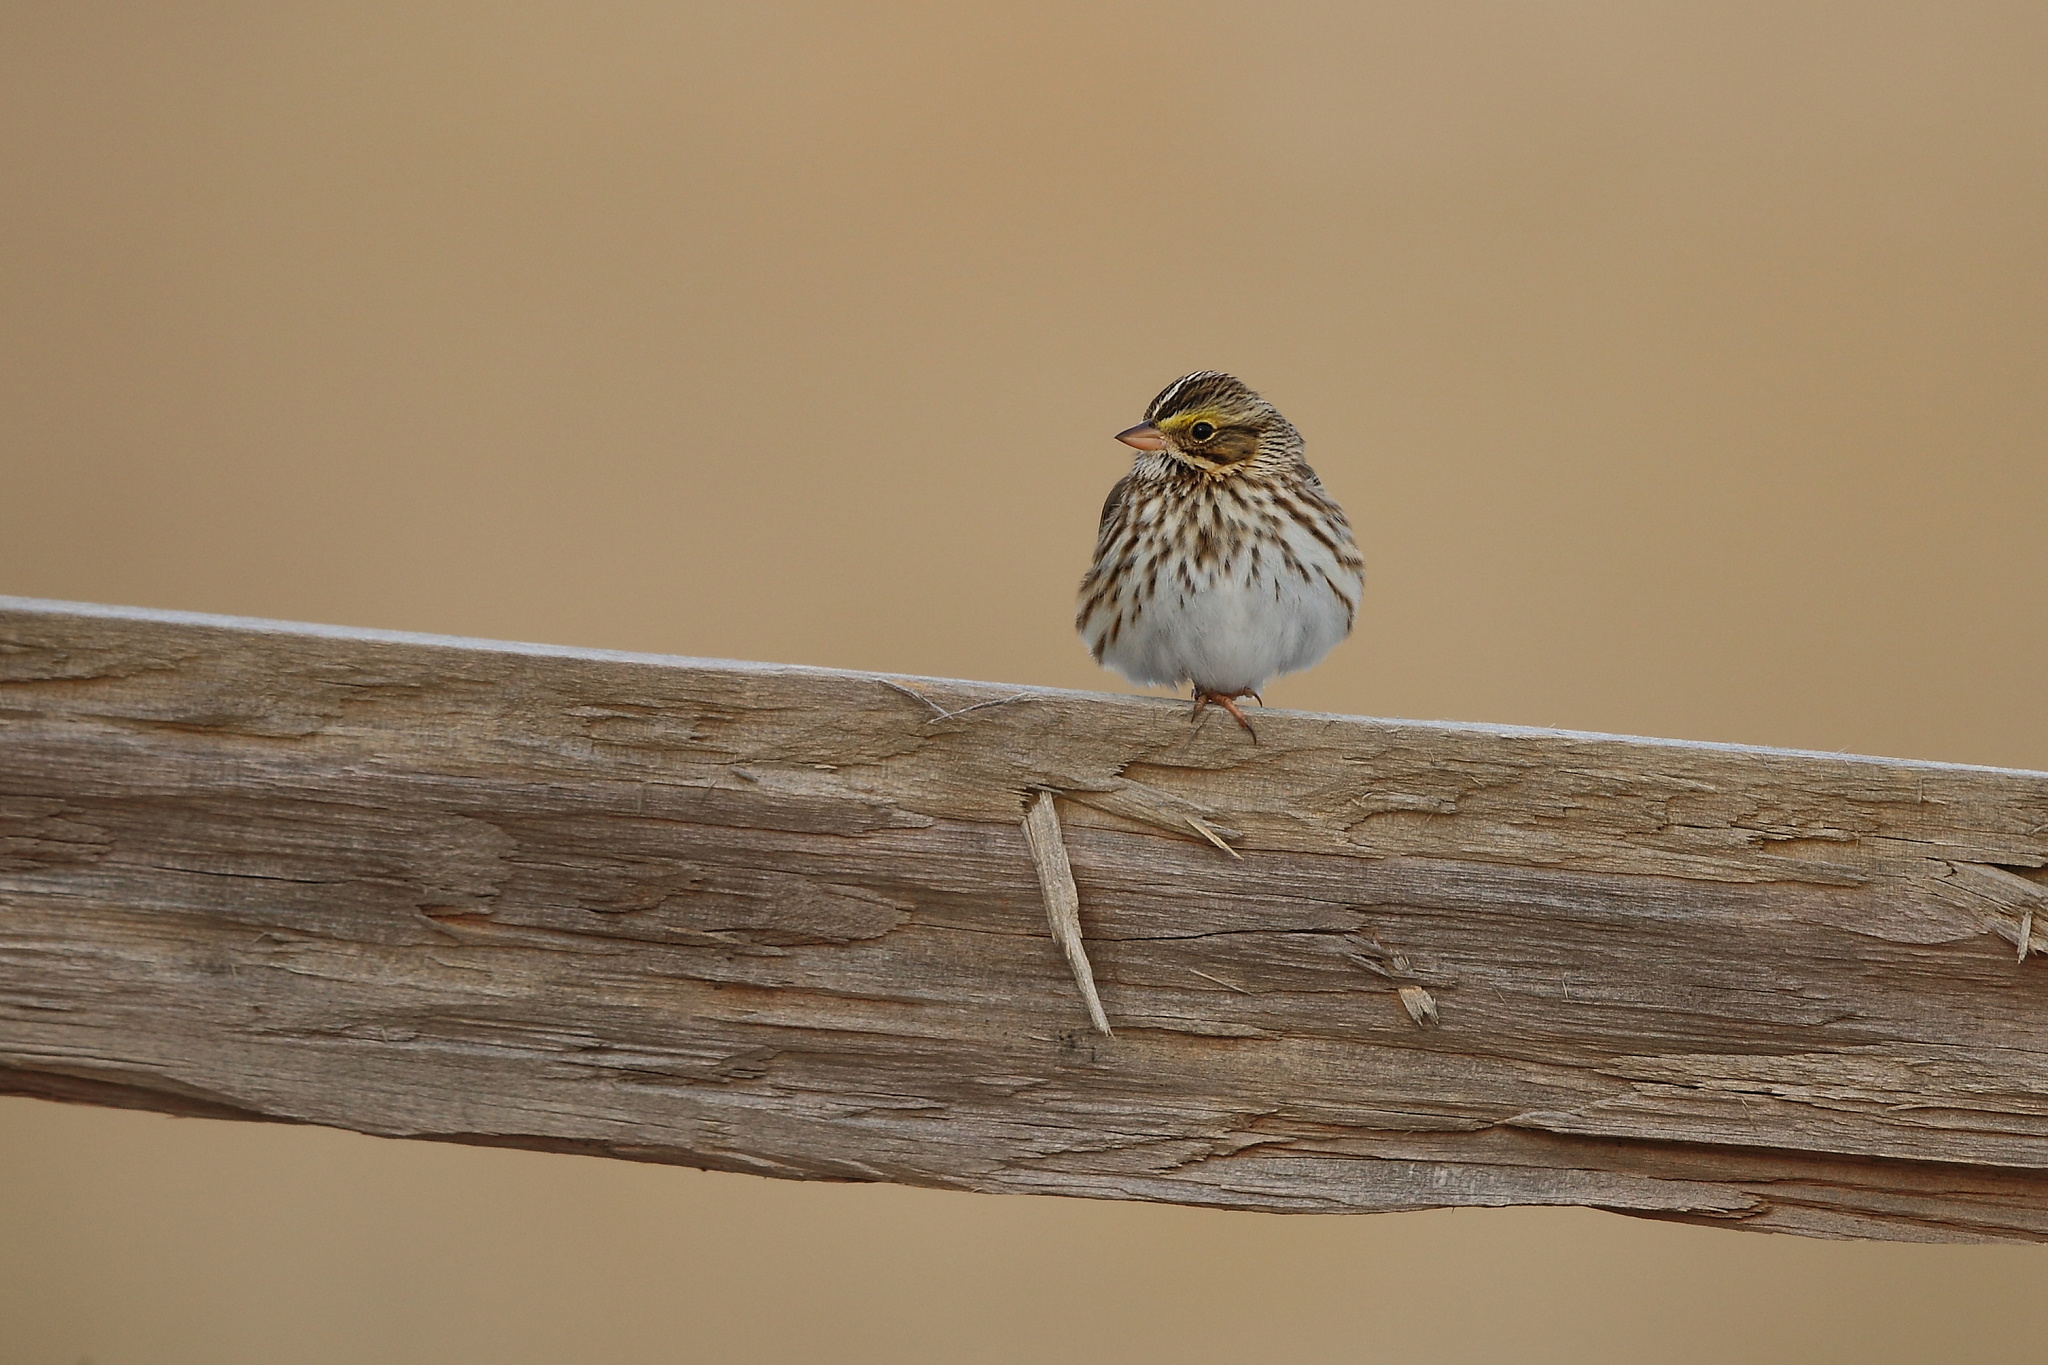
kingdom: Animalia
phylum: Chordata
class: Aves
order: Passeriformes
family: Passerellidae
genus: Passerculus
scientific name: Passerculus sandwichensis
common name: Savannah sparrow
